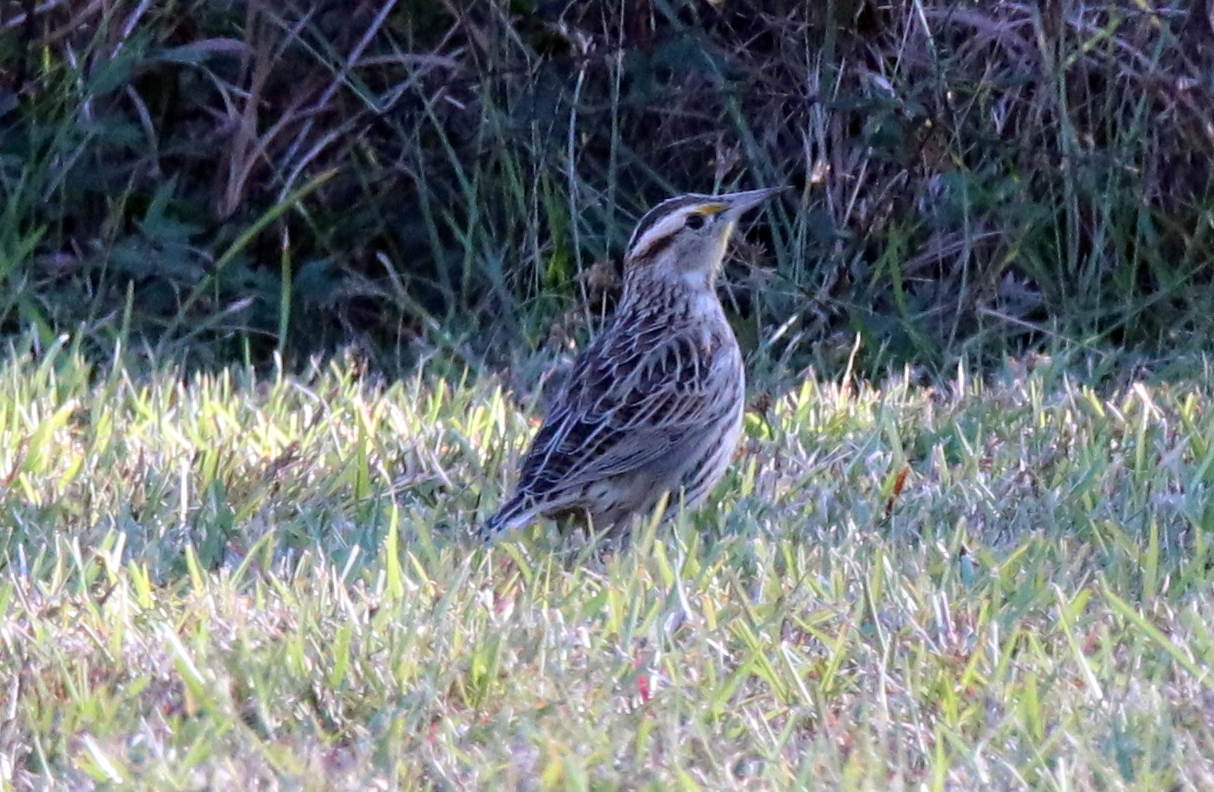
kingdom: Animalia
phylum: Chordata
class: Aves
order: Passeriformes
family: Icteridae
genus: Sturnella
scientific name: Sturnella magna
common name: Eastern meadowlark
